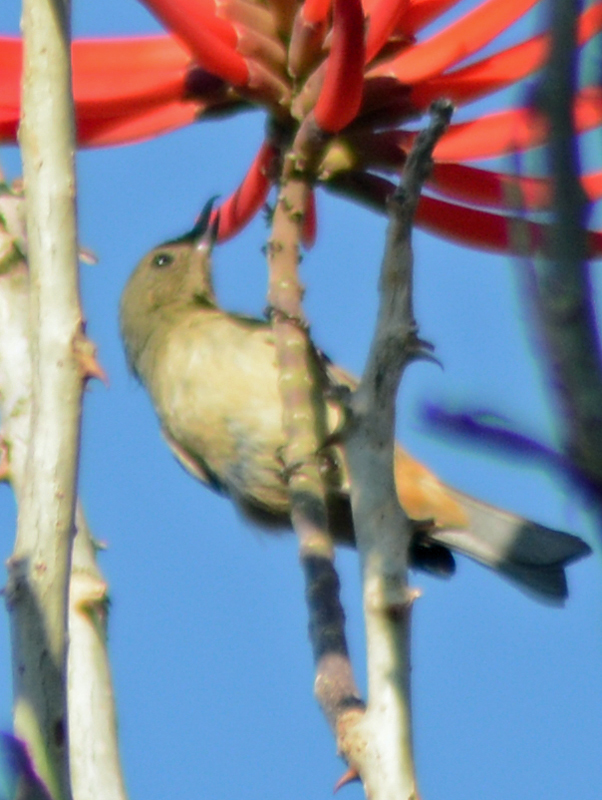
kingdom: Animalia
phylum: Chordata
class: Aves
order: Passeriformes
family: Thraupidae
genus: Diglossa
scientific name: Diglossa baritula
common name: Cinnamon-bellied flowerpiercer
